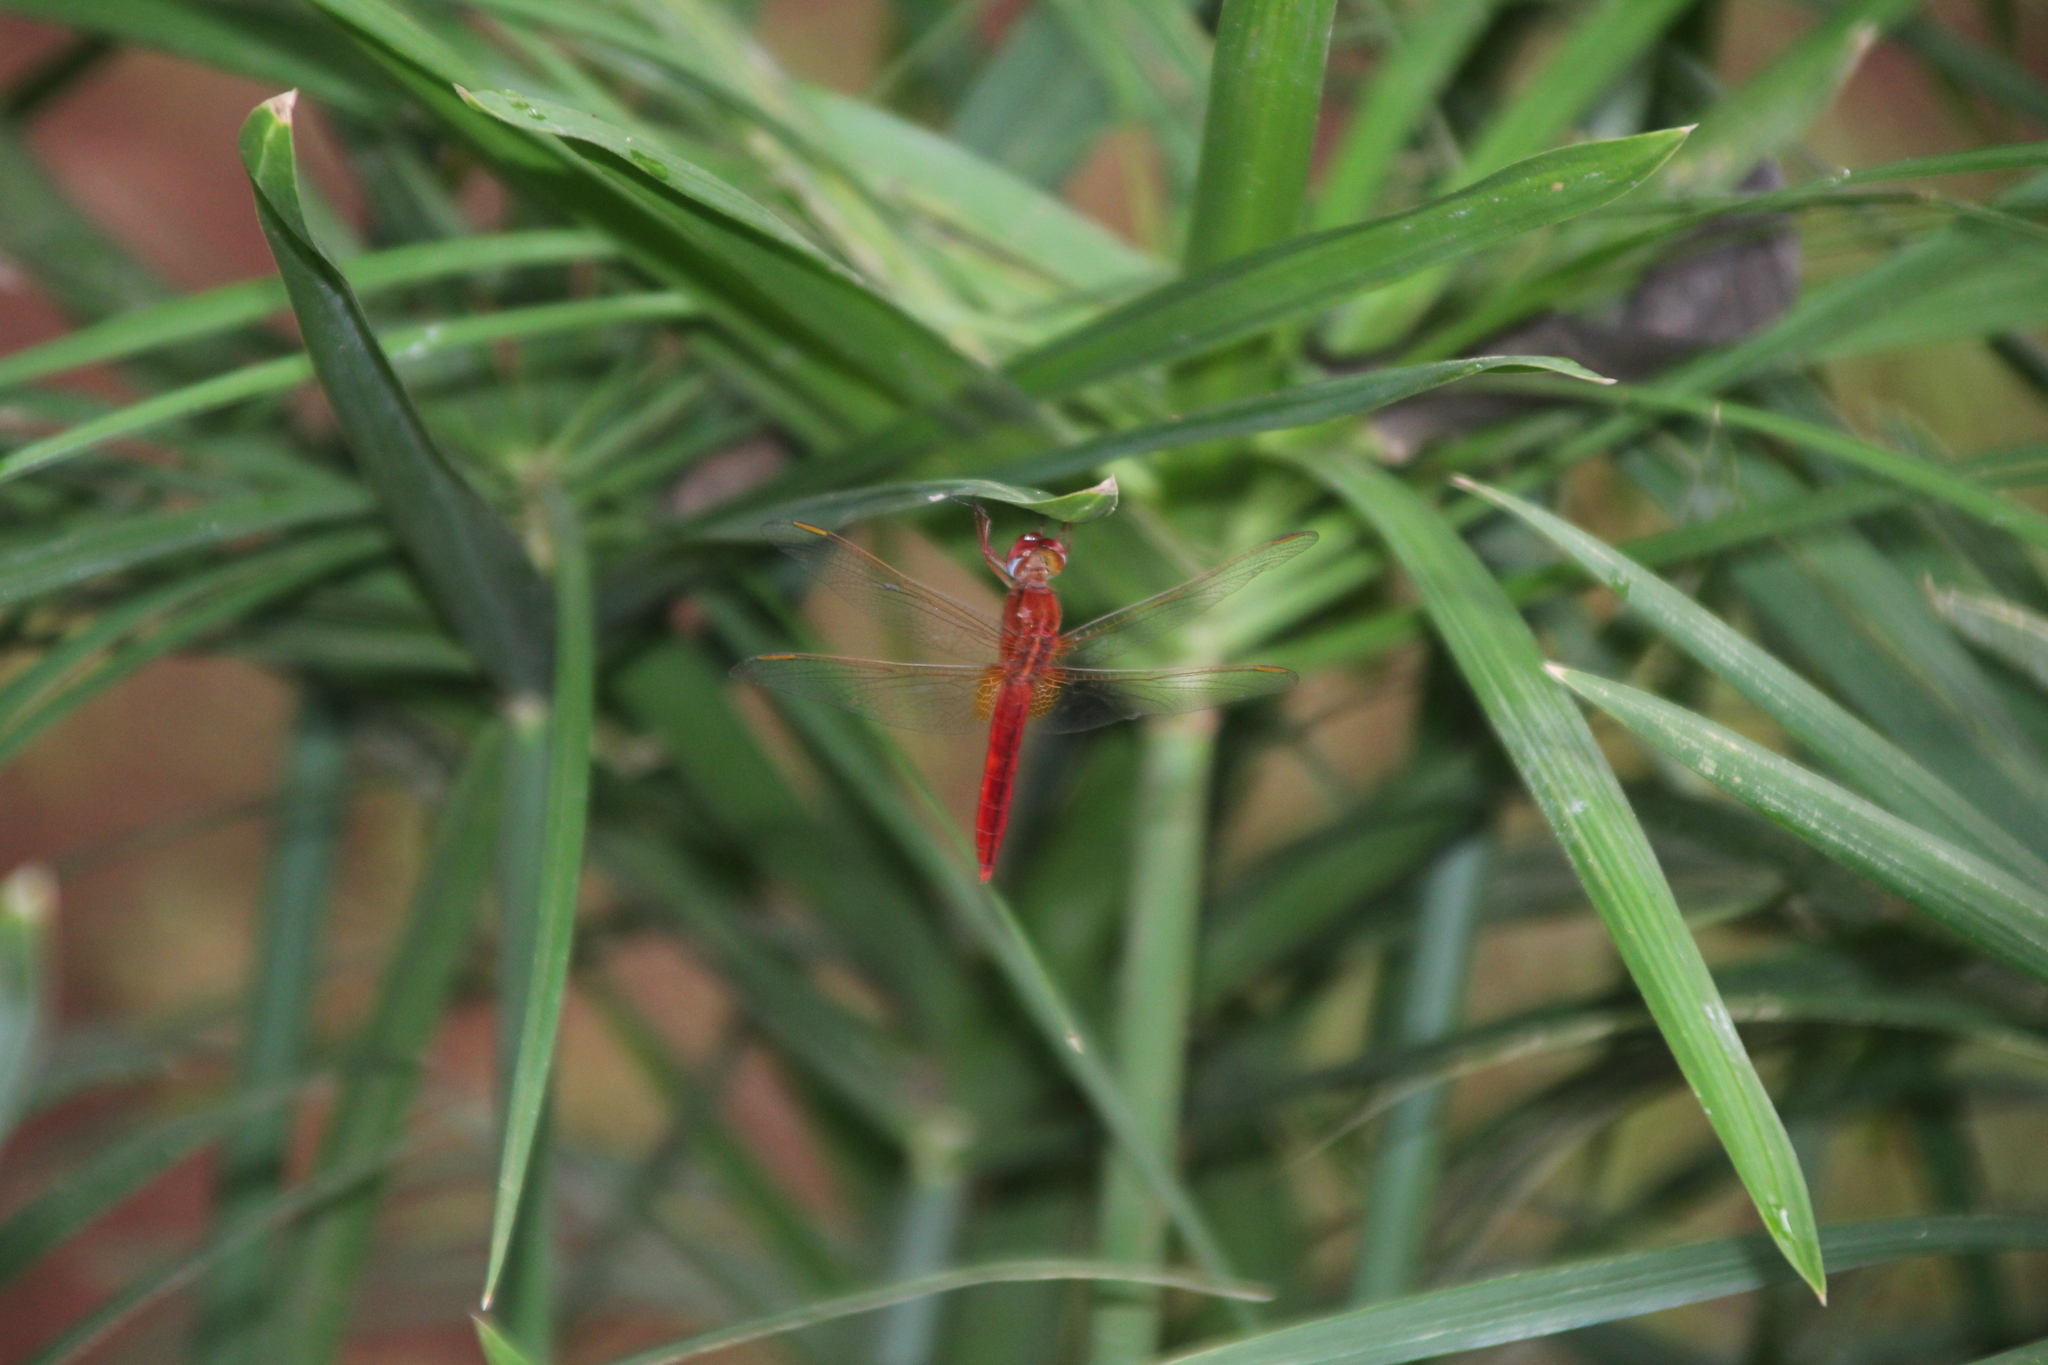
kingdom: Animalia
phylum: Arthropoda
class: Insecta
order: Odonata
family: Libellulidae
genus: Crocothemis
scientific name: Crocothemis erythraea
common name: Scarlet dragonfly
